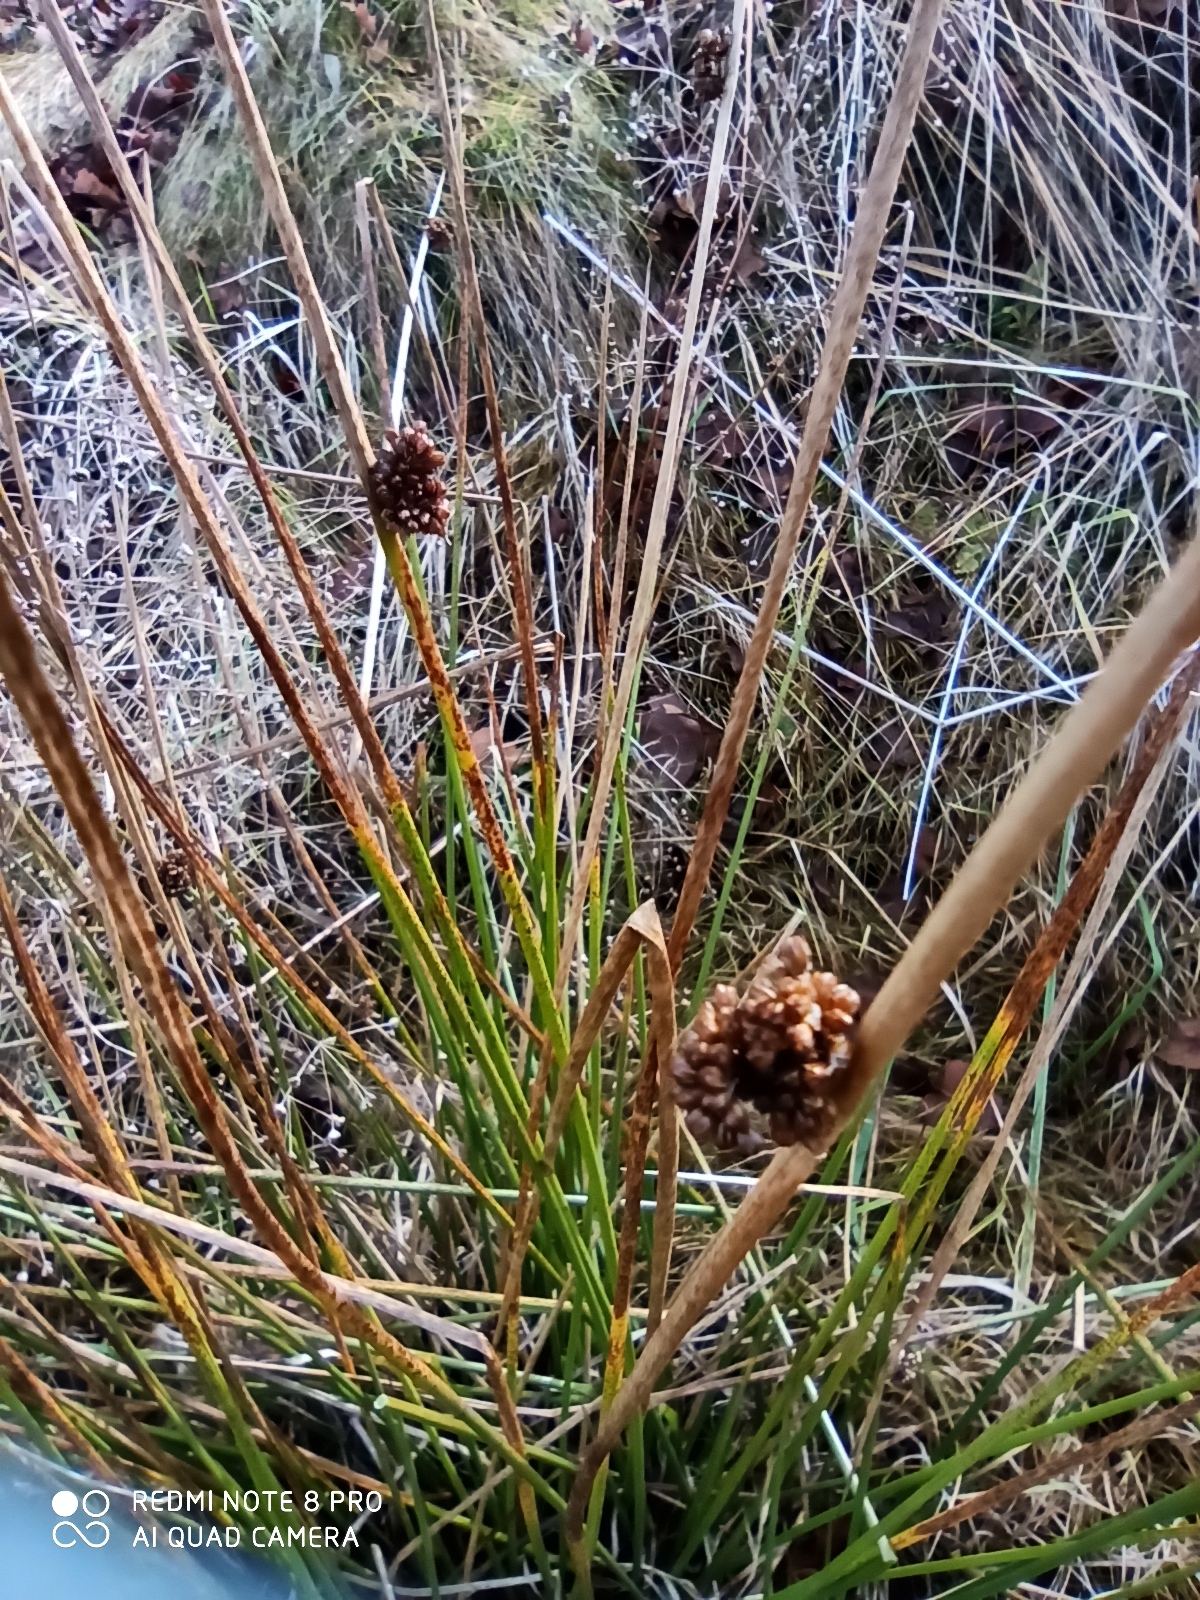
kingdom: Plantae
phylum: Tracheophyta
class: Liliopsida
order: Poales
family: Juncaceae
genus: Juncus
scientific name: Juncus effusus
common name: Soft rush
